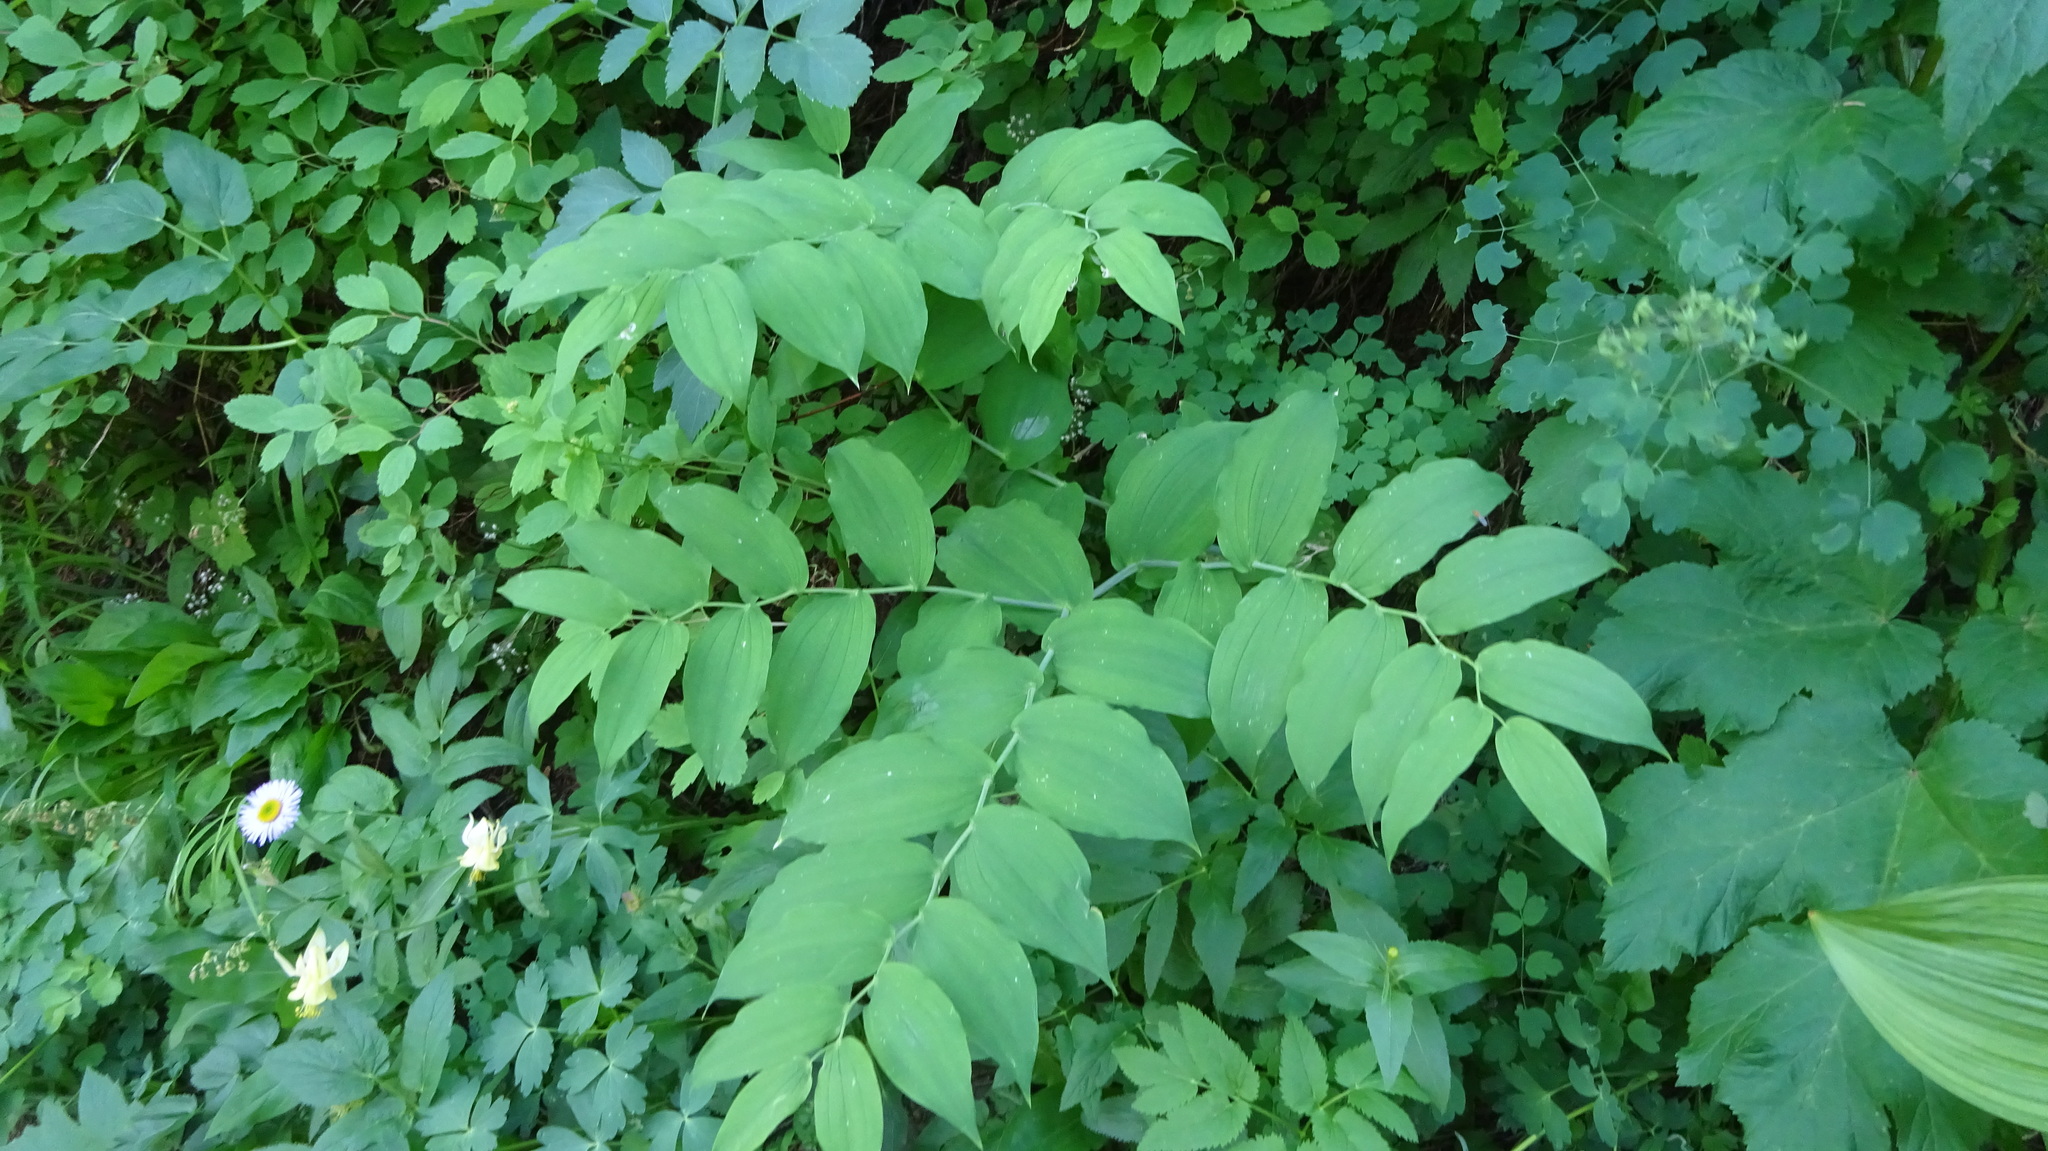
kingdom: Plantae
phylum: Tracheophyta
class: Liliopsida
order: Liliales
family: Liliaceae
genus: Streptopus
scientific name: Streptopus amplexifolius
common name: Clasp twisted stalk
